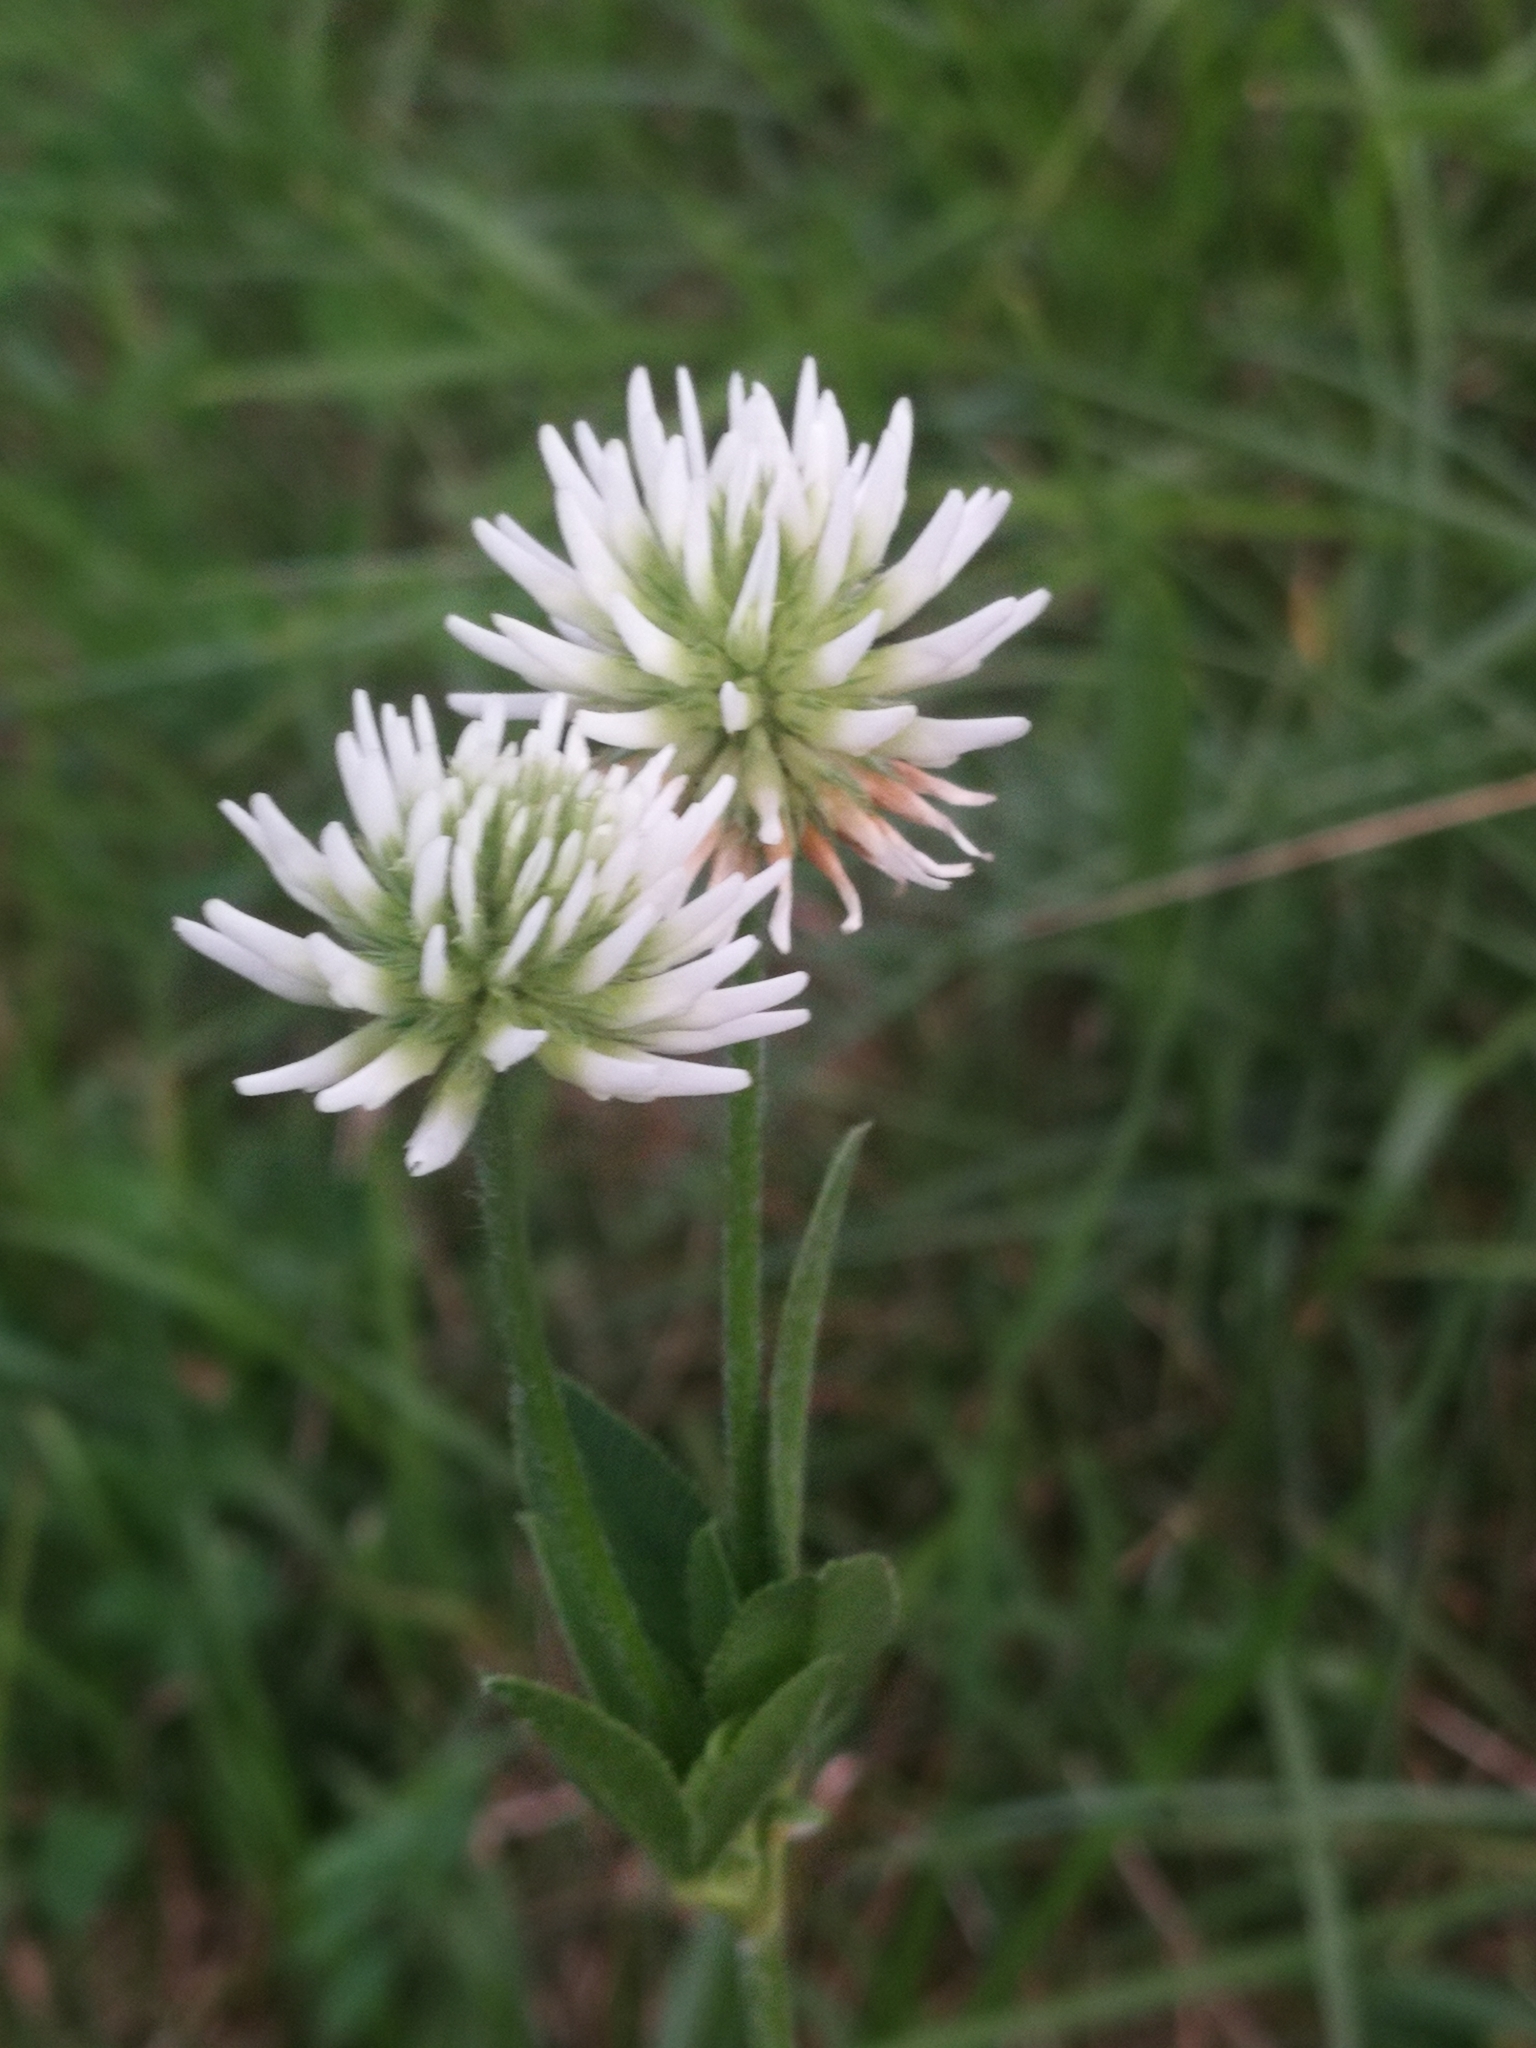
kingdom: Plantae
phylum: Tracheophyta
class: Magnoliopsida
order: Fabales
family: Fabaceae
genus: Trifolium
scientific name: Trifolium montanum
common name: Mountain clover
